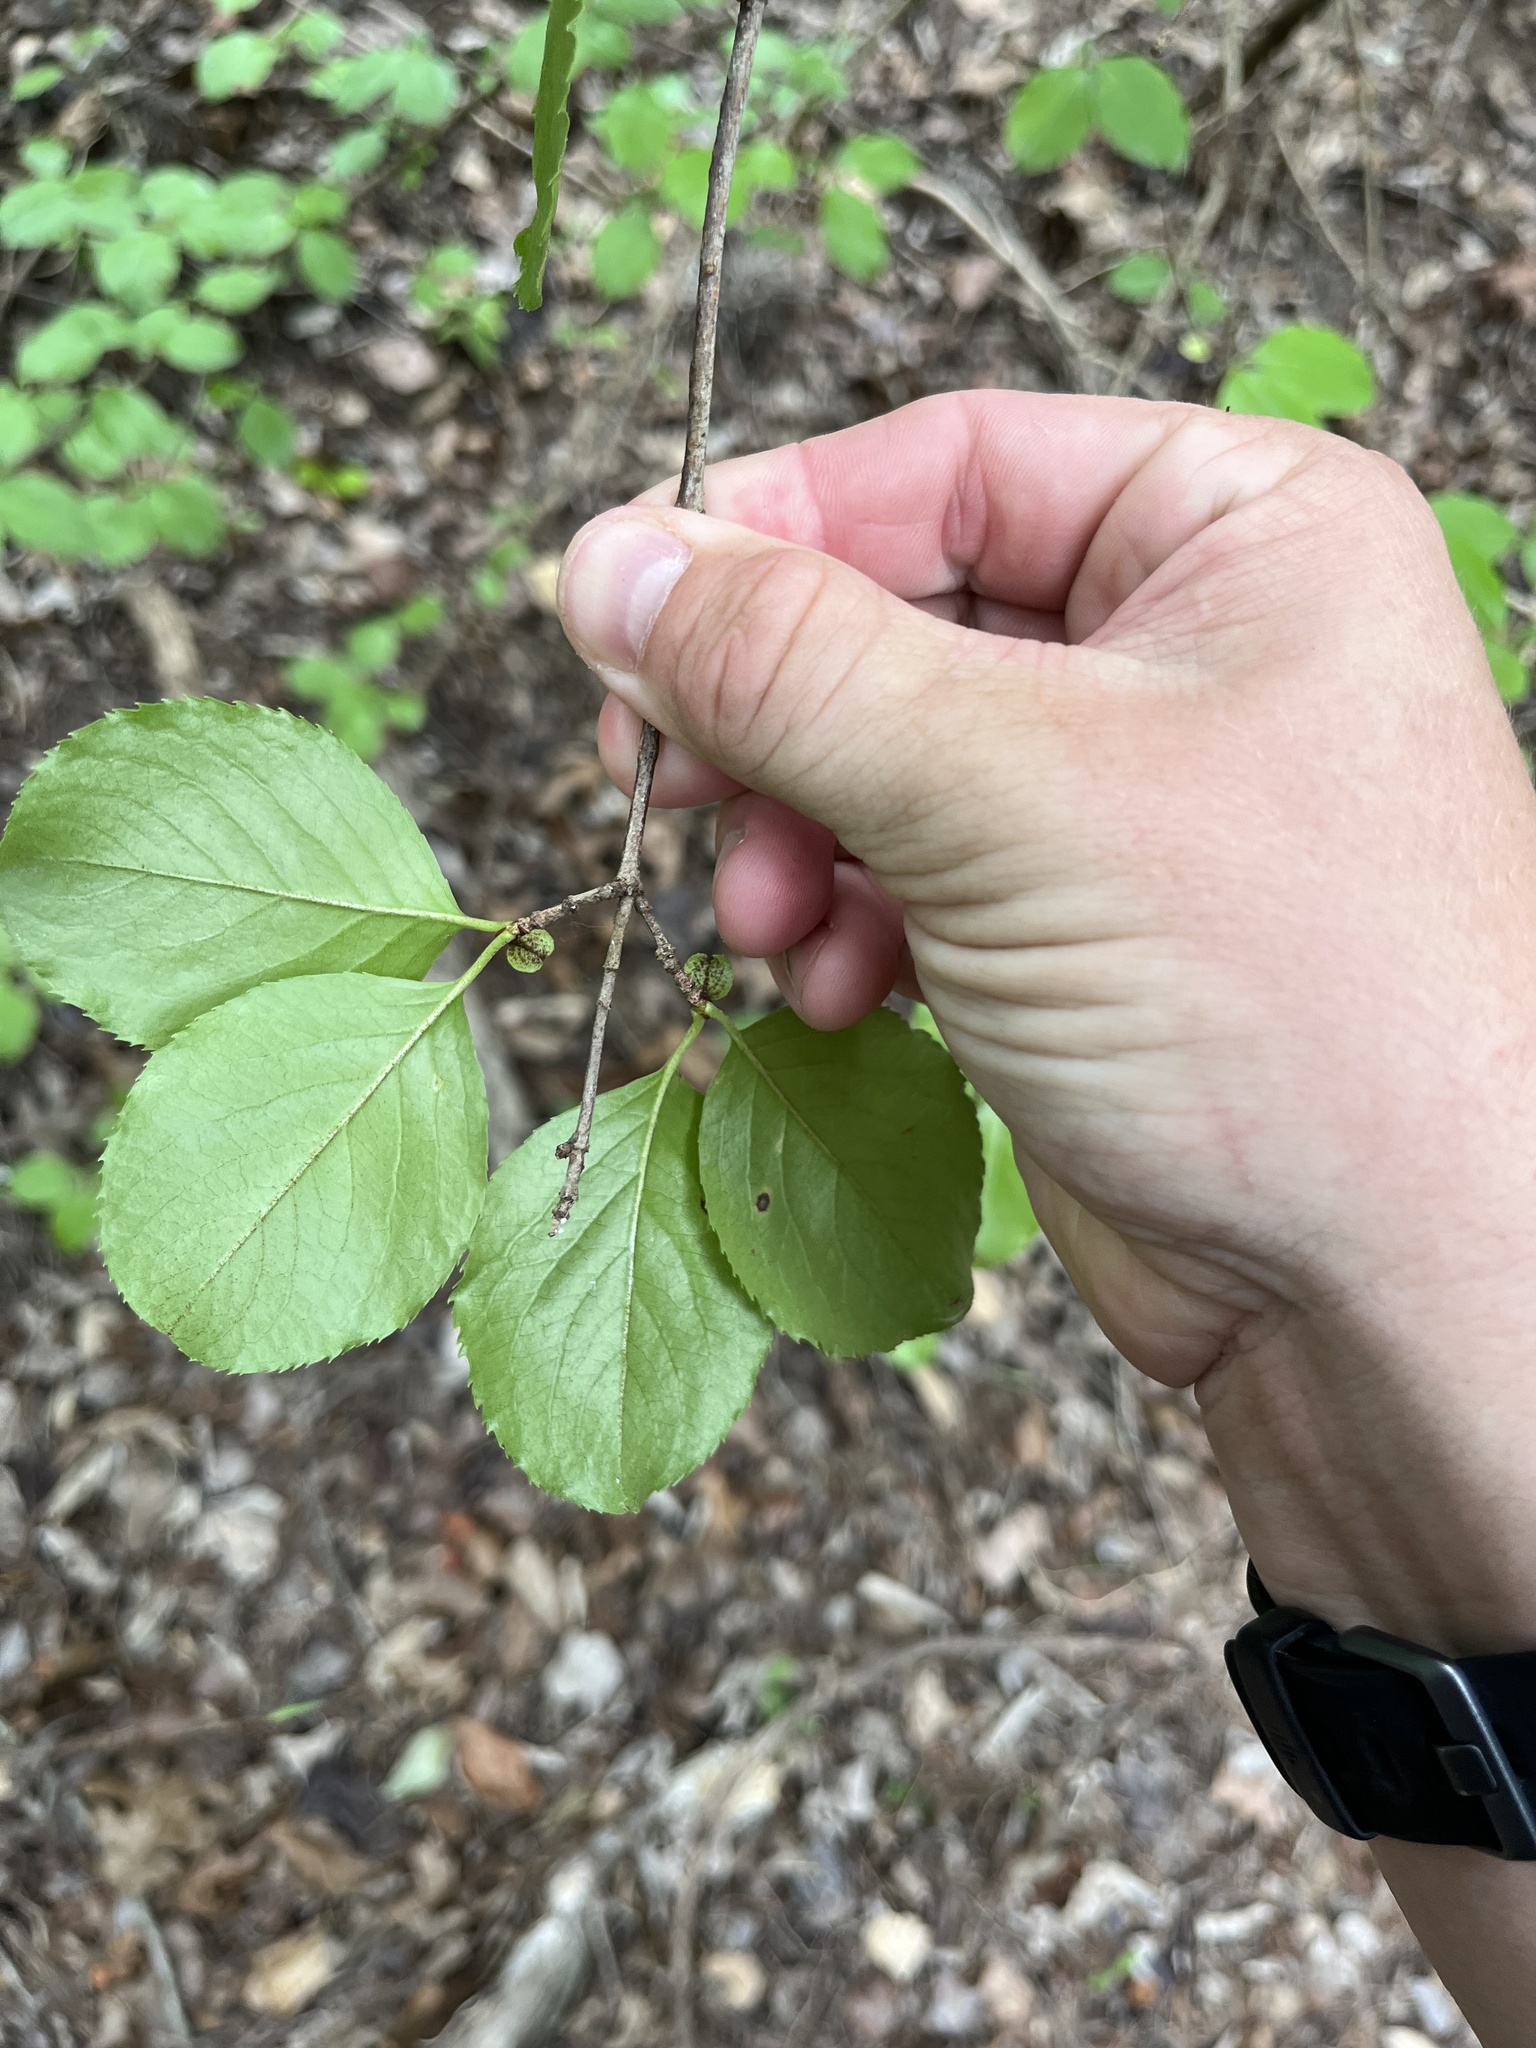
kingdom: Plantae
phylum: Tracheophyta
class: Magnoliopsida
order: Dipsacales
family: Viburnaceae
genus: Viburnum
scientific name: Viburnum rufidulum
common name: Blue haw
